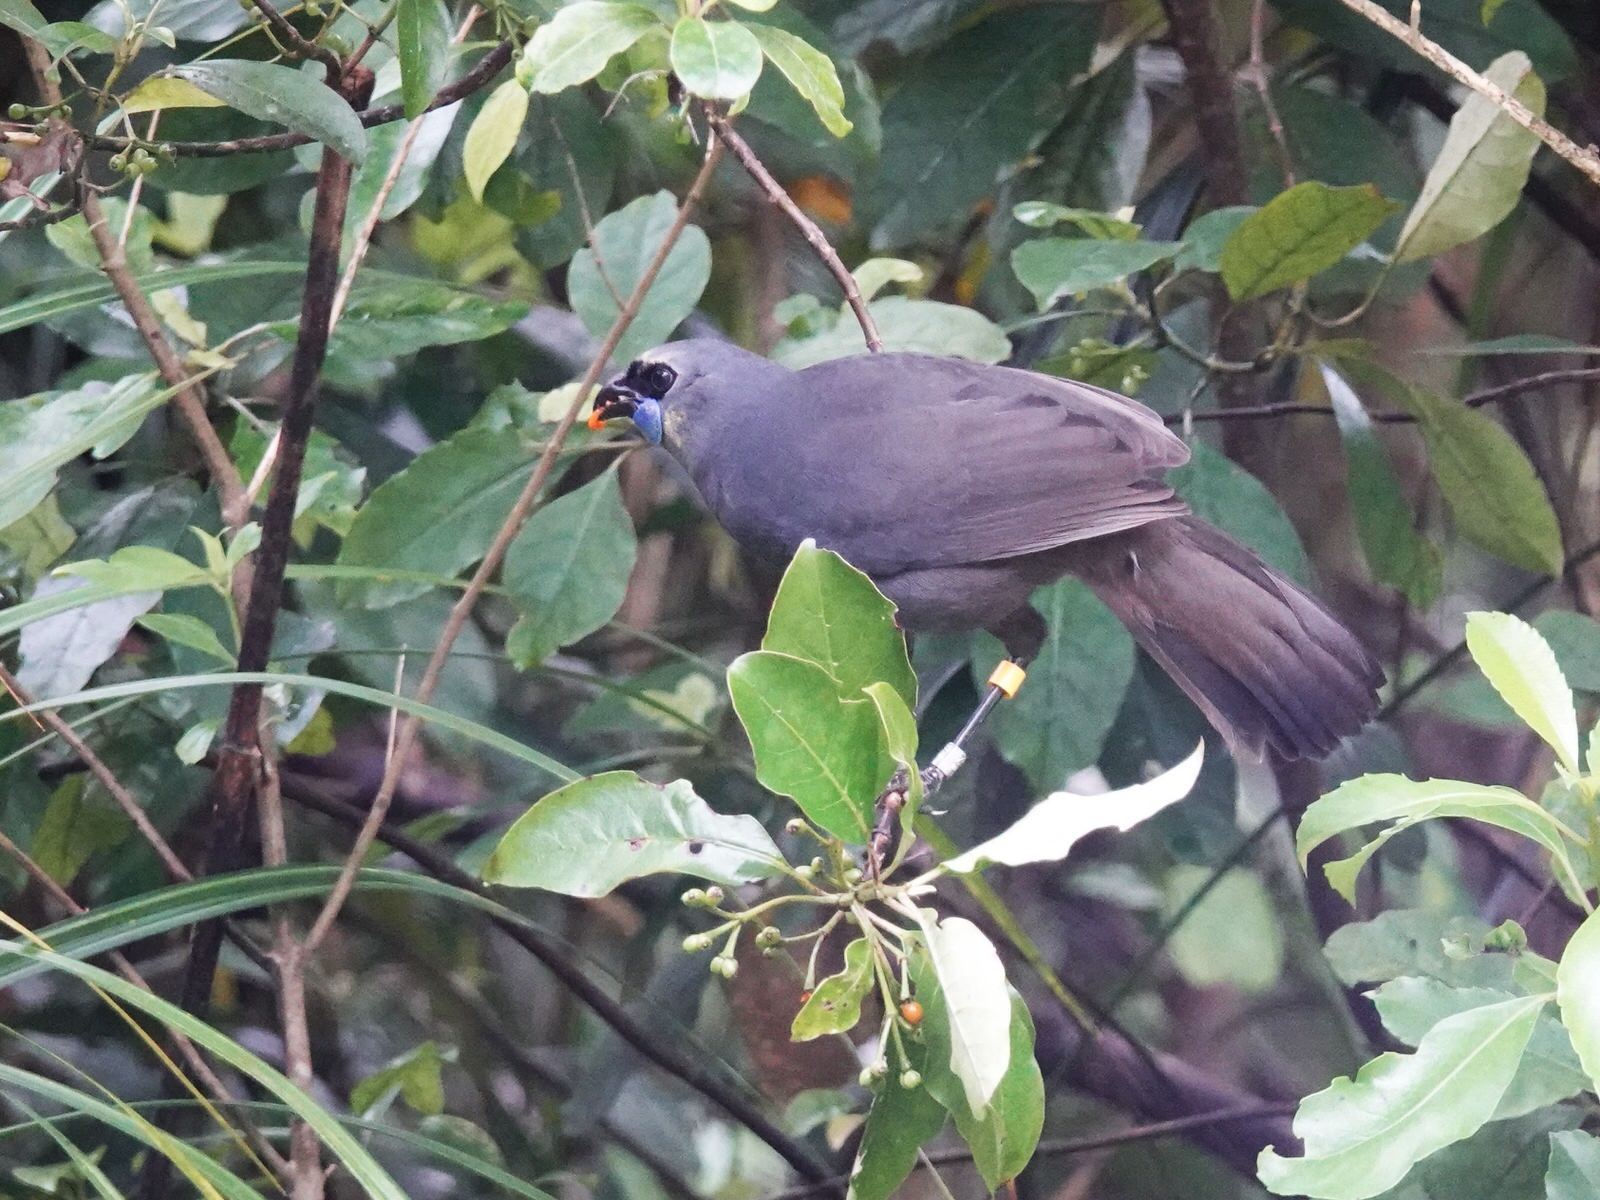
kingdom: Animalia
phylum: Chordata
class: Aves
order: Passeriformes
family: Callaeatidae
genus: Callaeas
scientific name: Callaeas cinereus
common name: South island kokako
